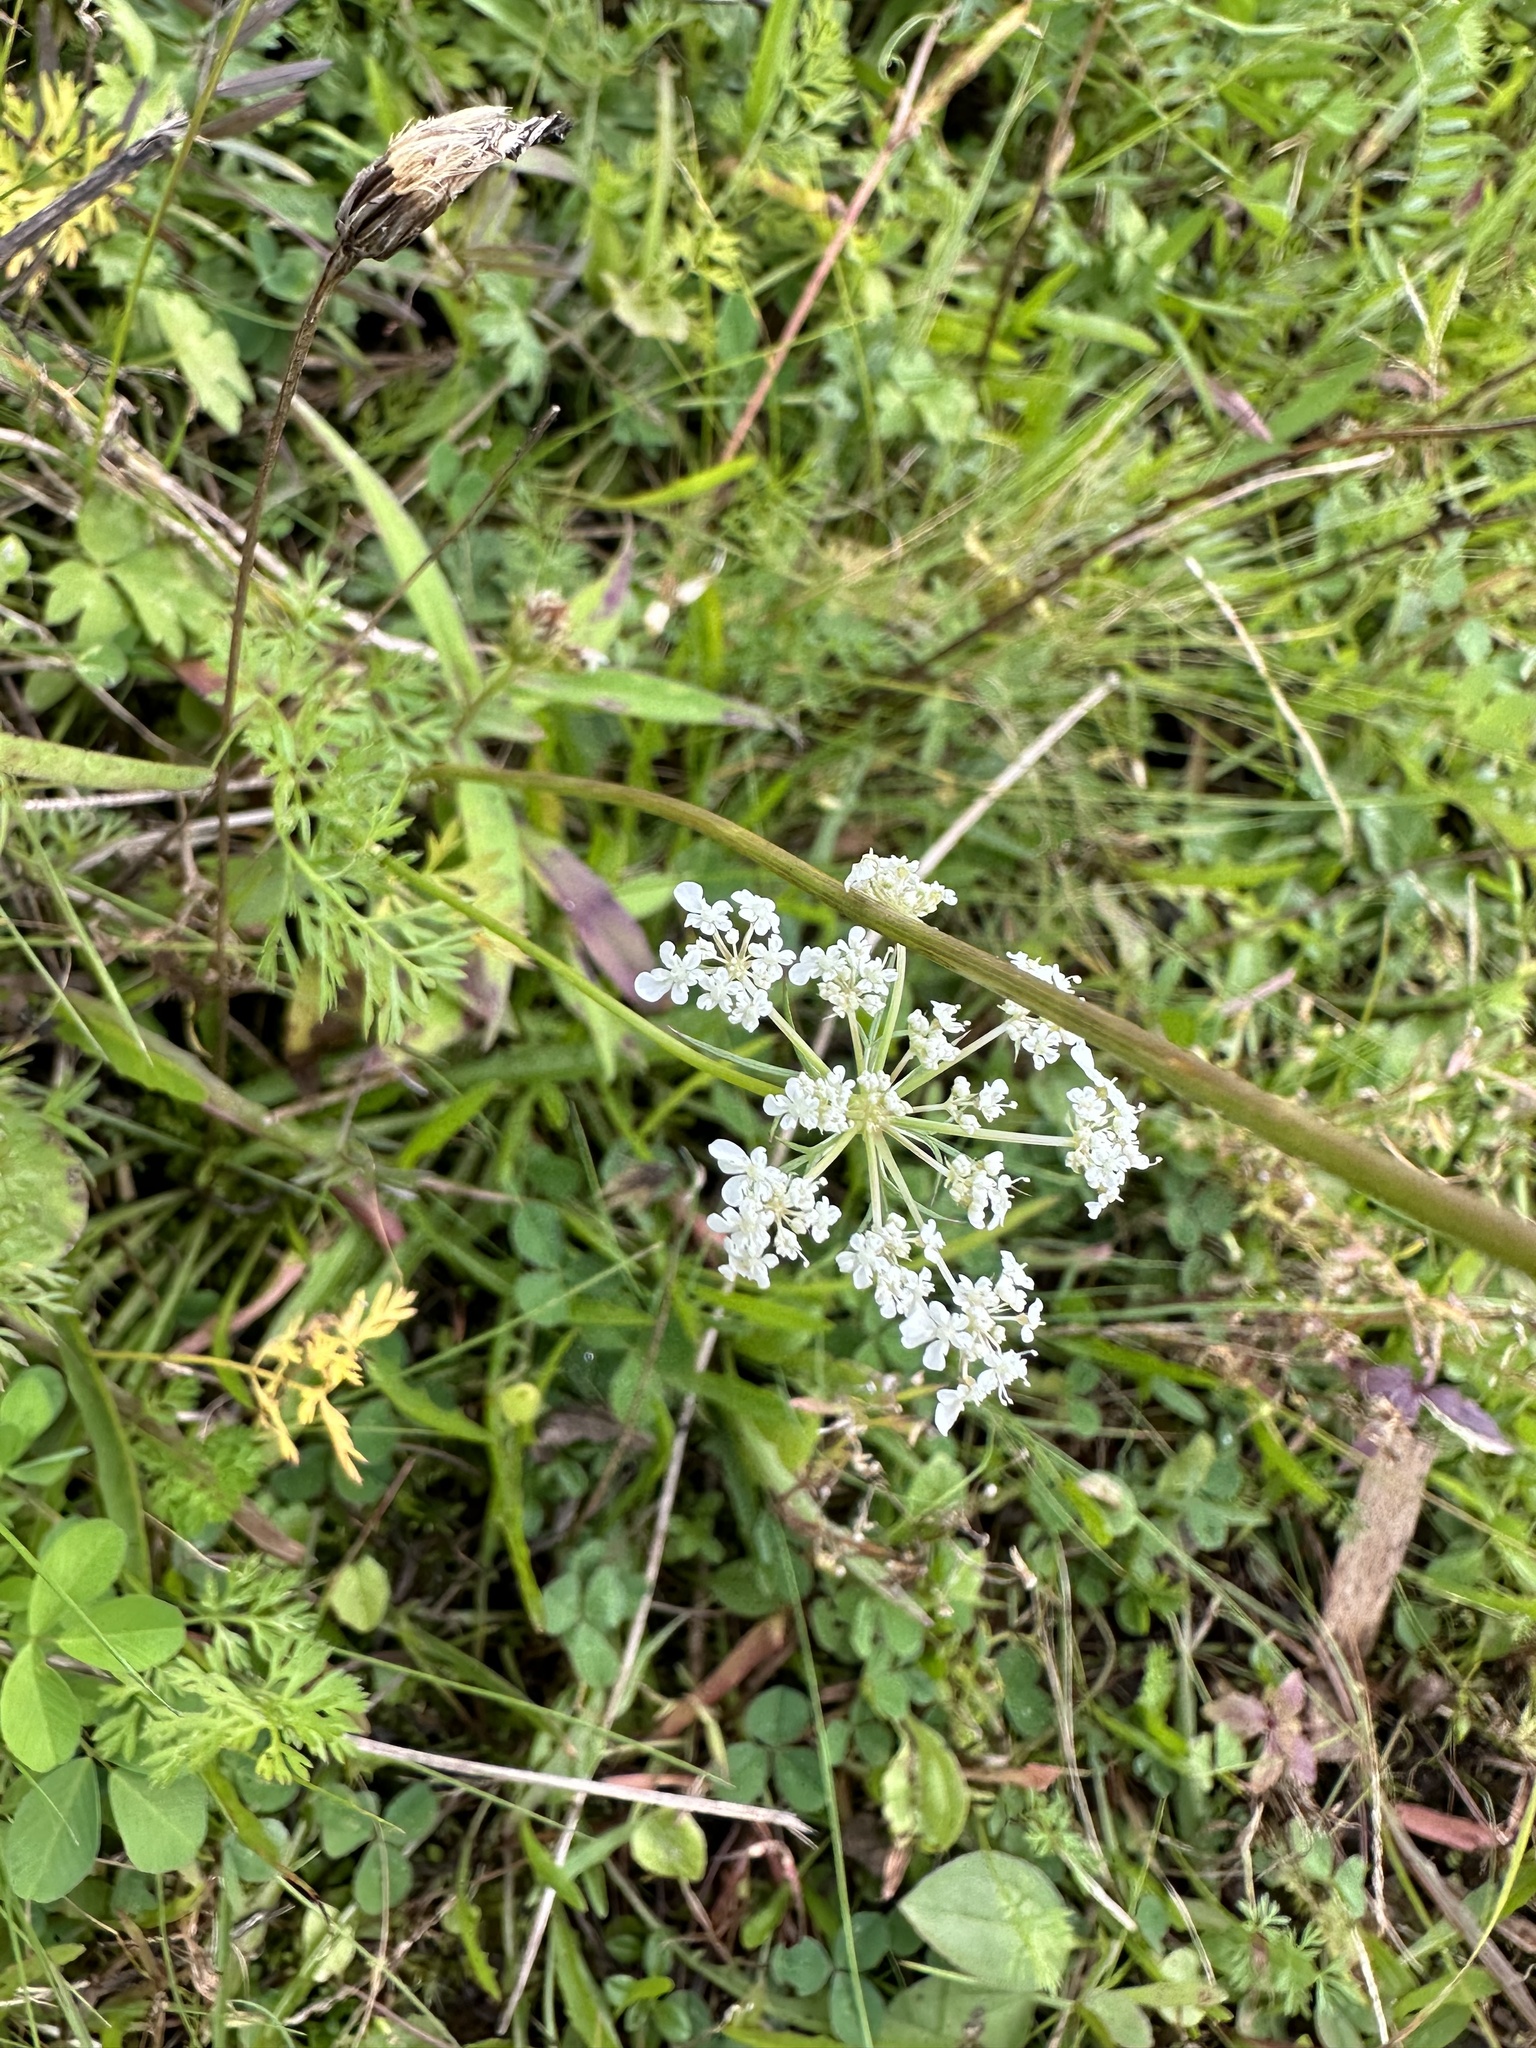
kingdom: Plantae
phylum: Tracheophyta
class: Magnoliopsida
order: Apiales
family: Apiaceae
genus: Daucus
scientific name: Daucus carota
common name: Wild carrot
